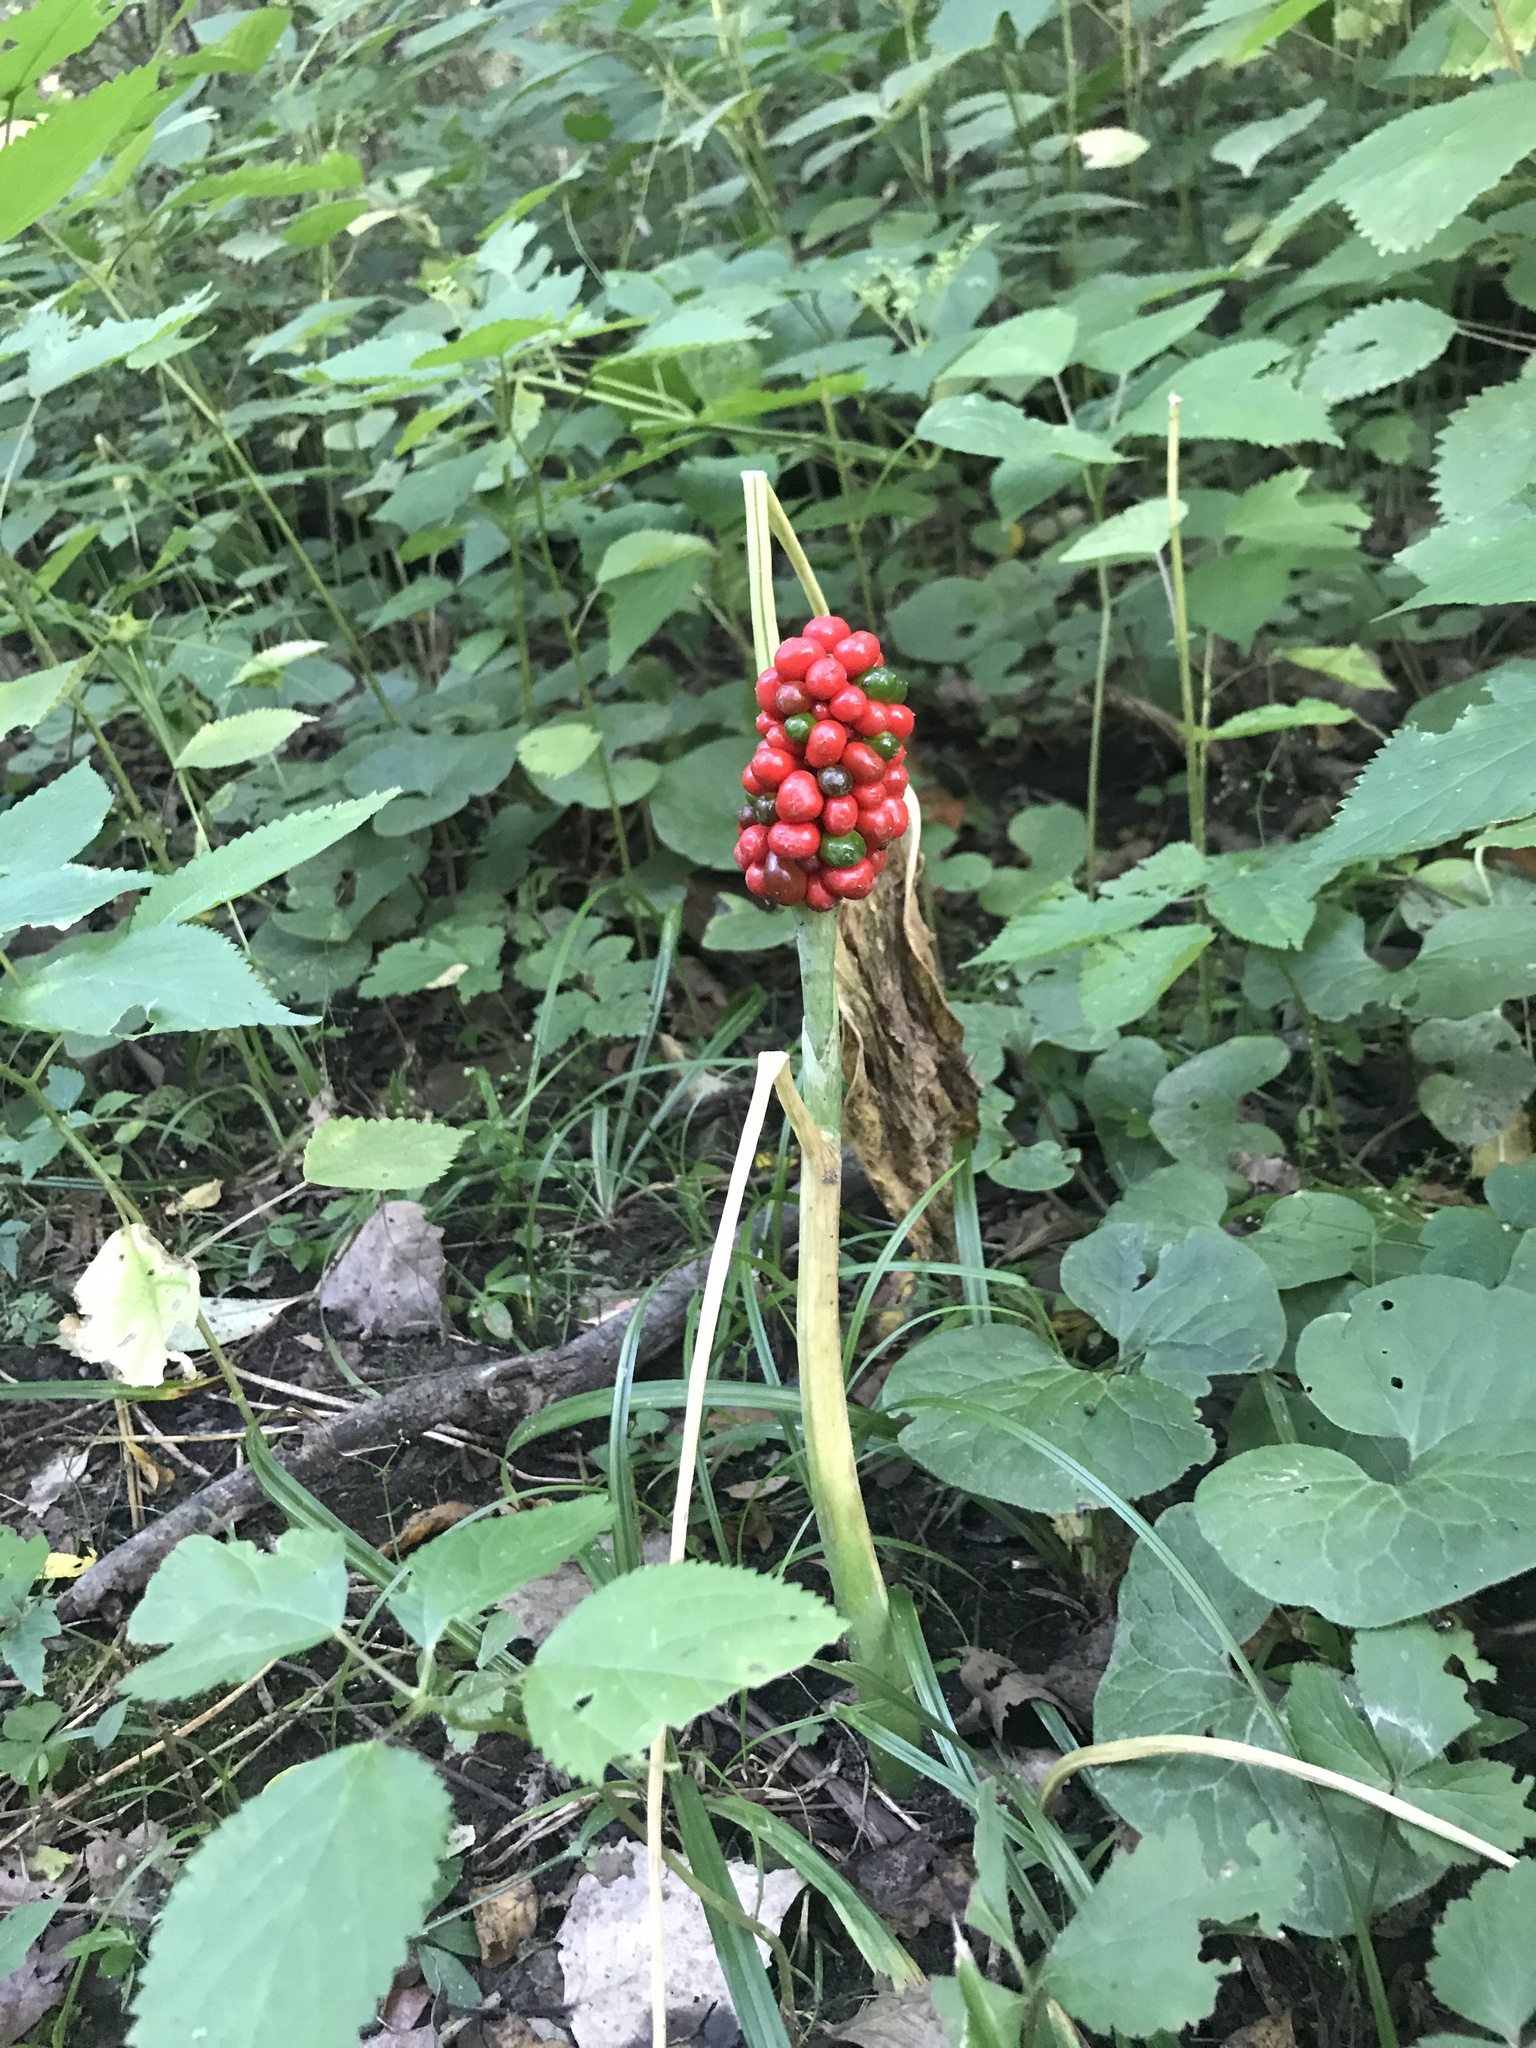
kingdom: Plantae
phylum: Tracheophyta
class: Liliopsida
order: Alismatales
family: Araceae
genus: Arisaema
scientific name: Arisaema triphyllum
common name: Jack-in-the-pulpit
